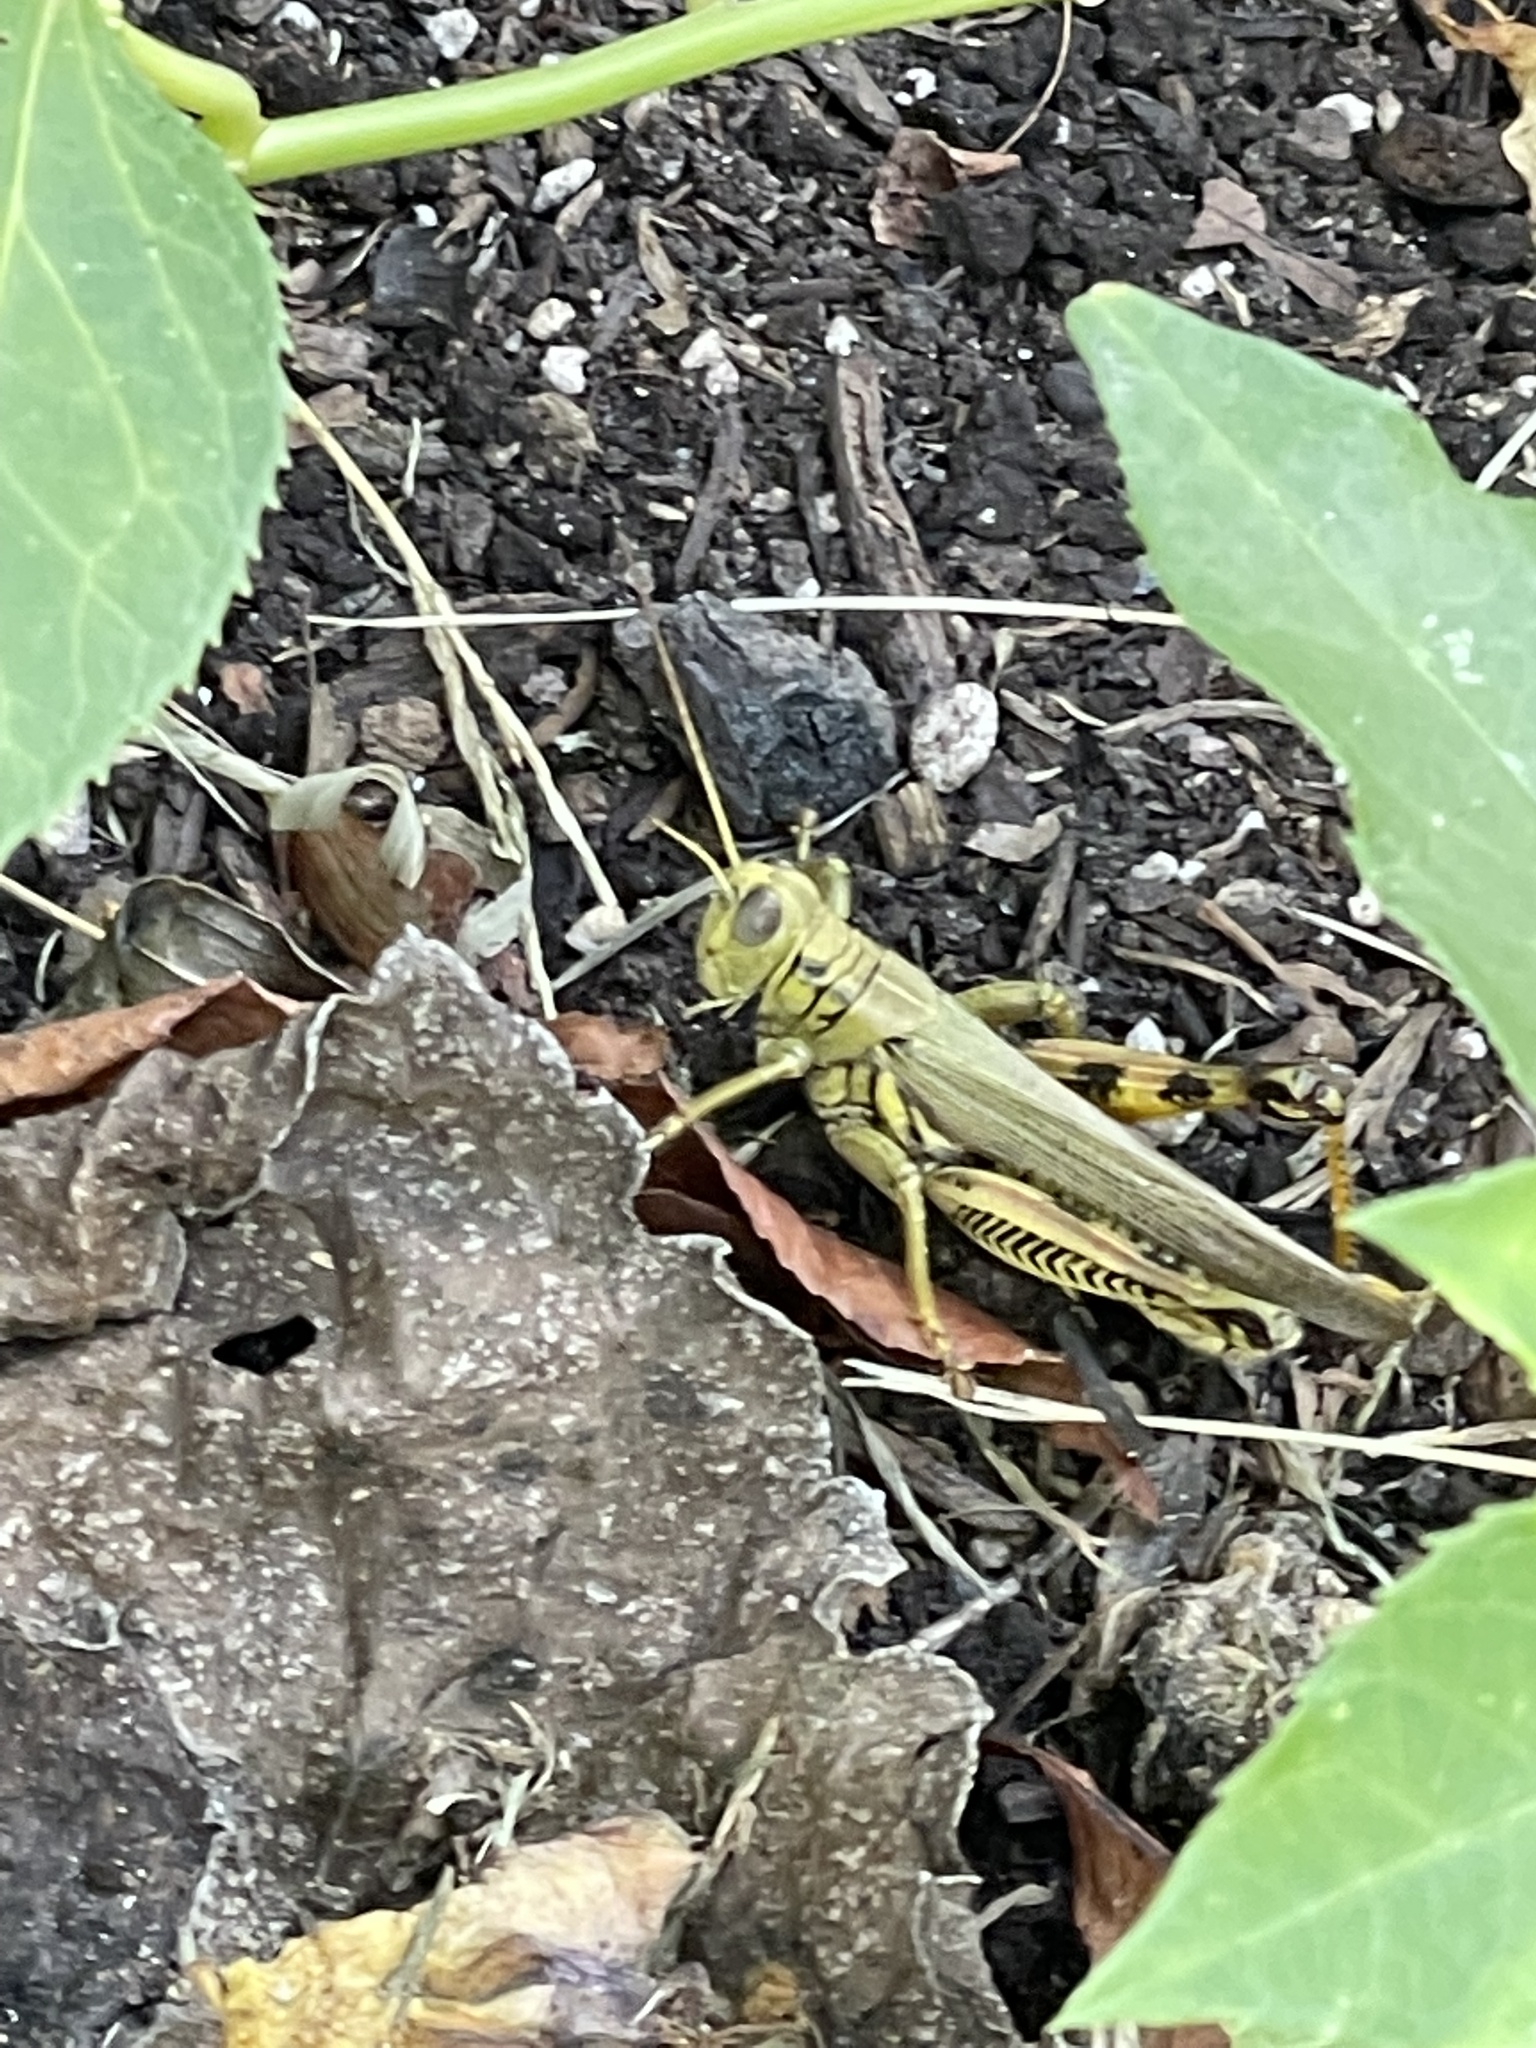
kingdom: Animalia
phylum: Arthropoda
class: Insecta
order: Orthoptera
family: Acrididae
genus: Melanoplus
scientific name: Melanoplus differentialis
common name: Differential grasshopper
